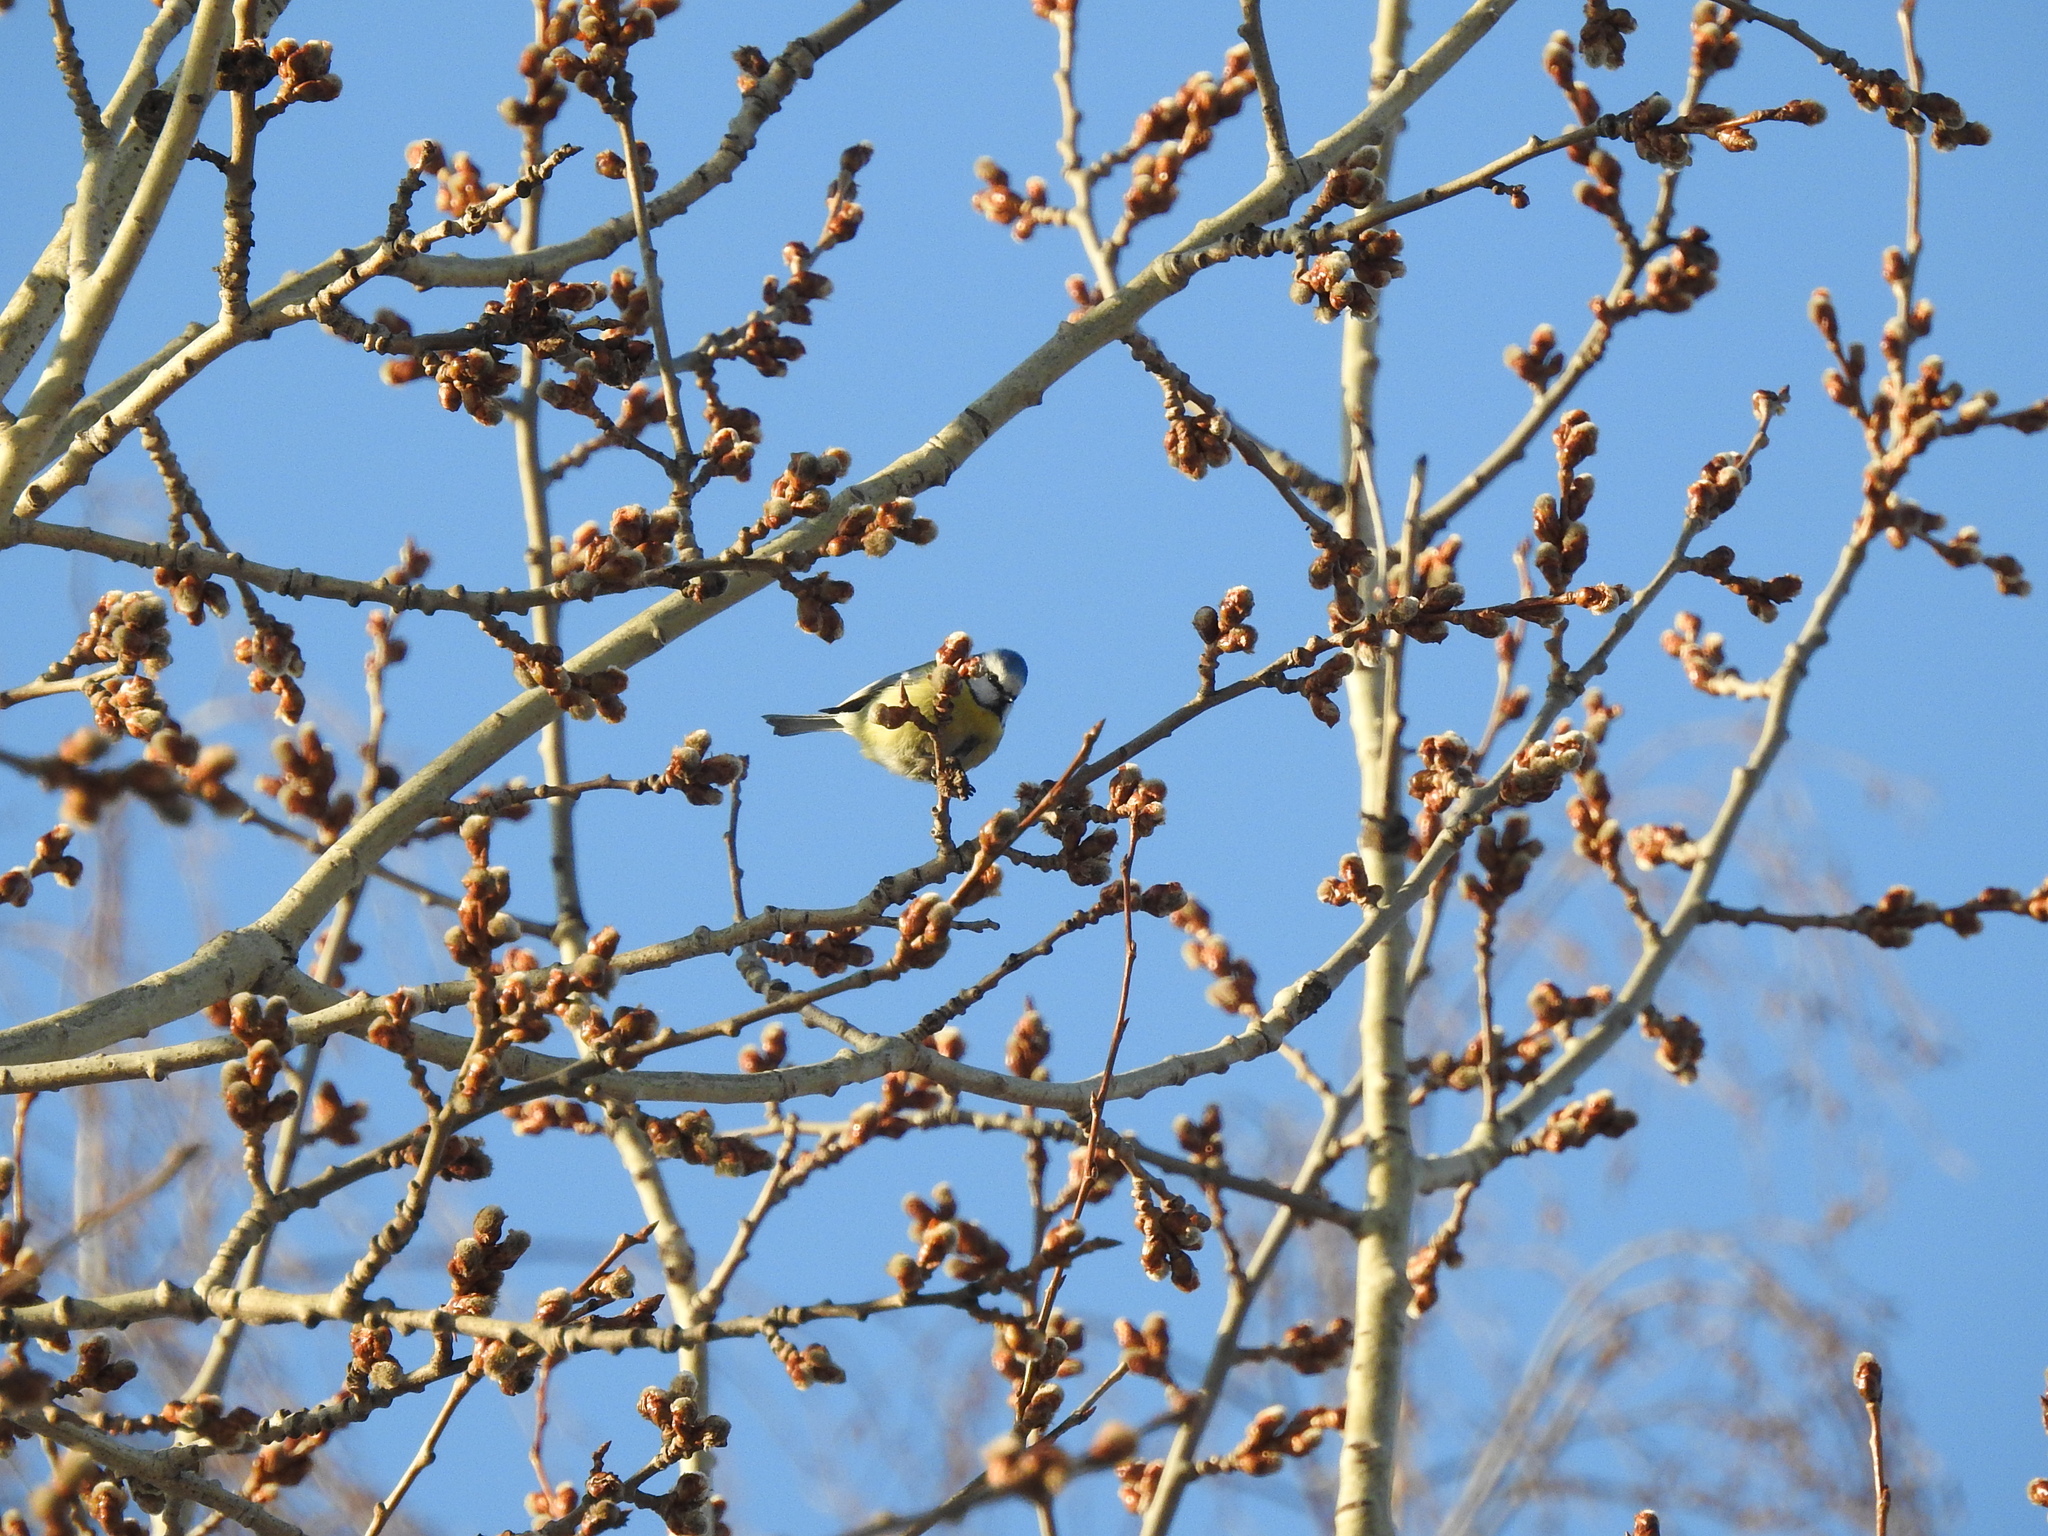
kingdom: Animalia
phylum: Chordata
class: Aves
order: Passeriformes
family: Paridae
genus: Cyanistes
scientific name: Cyanistes caeruleus
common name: Eurasian blue tit
